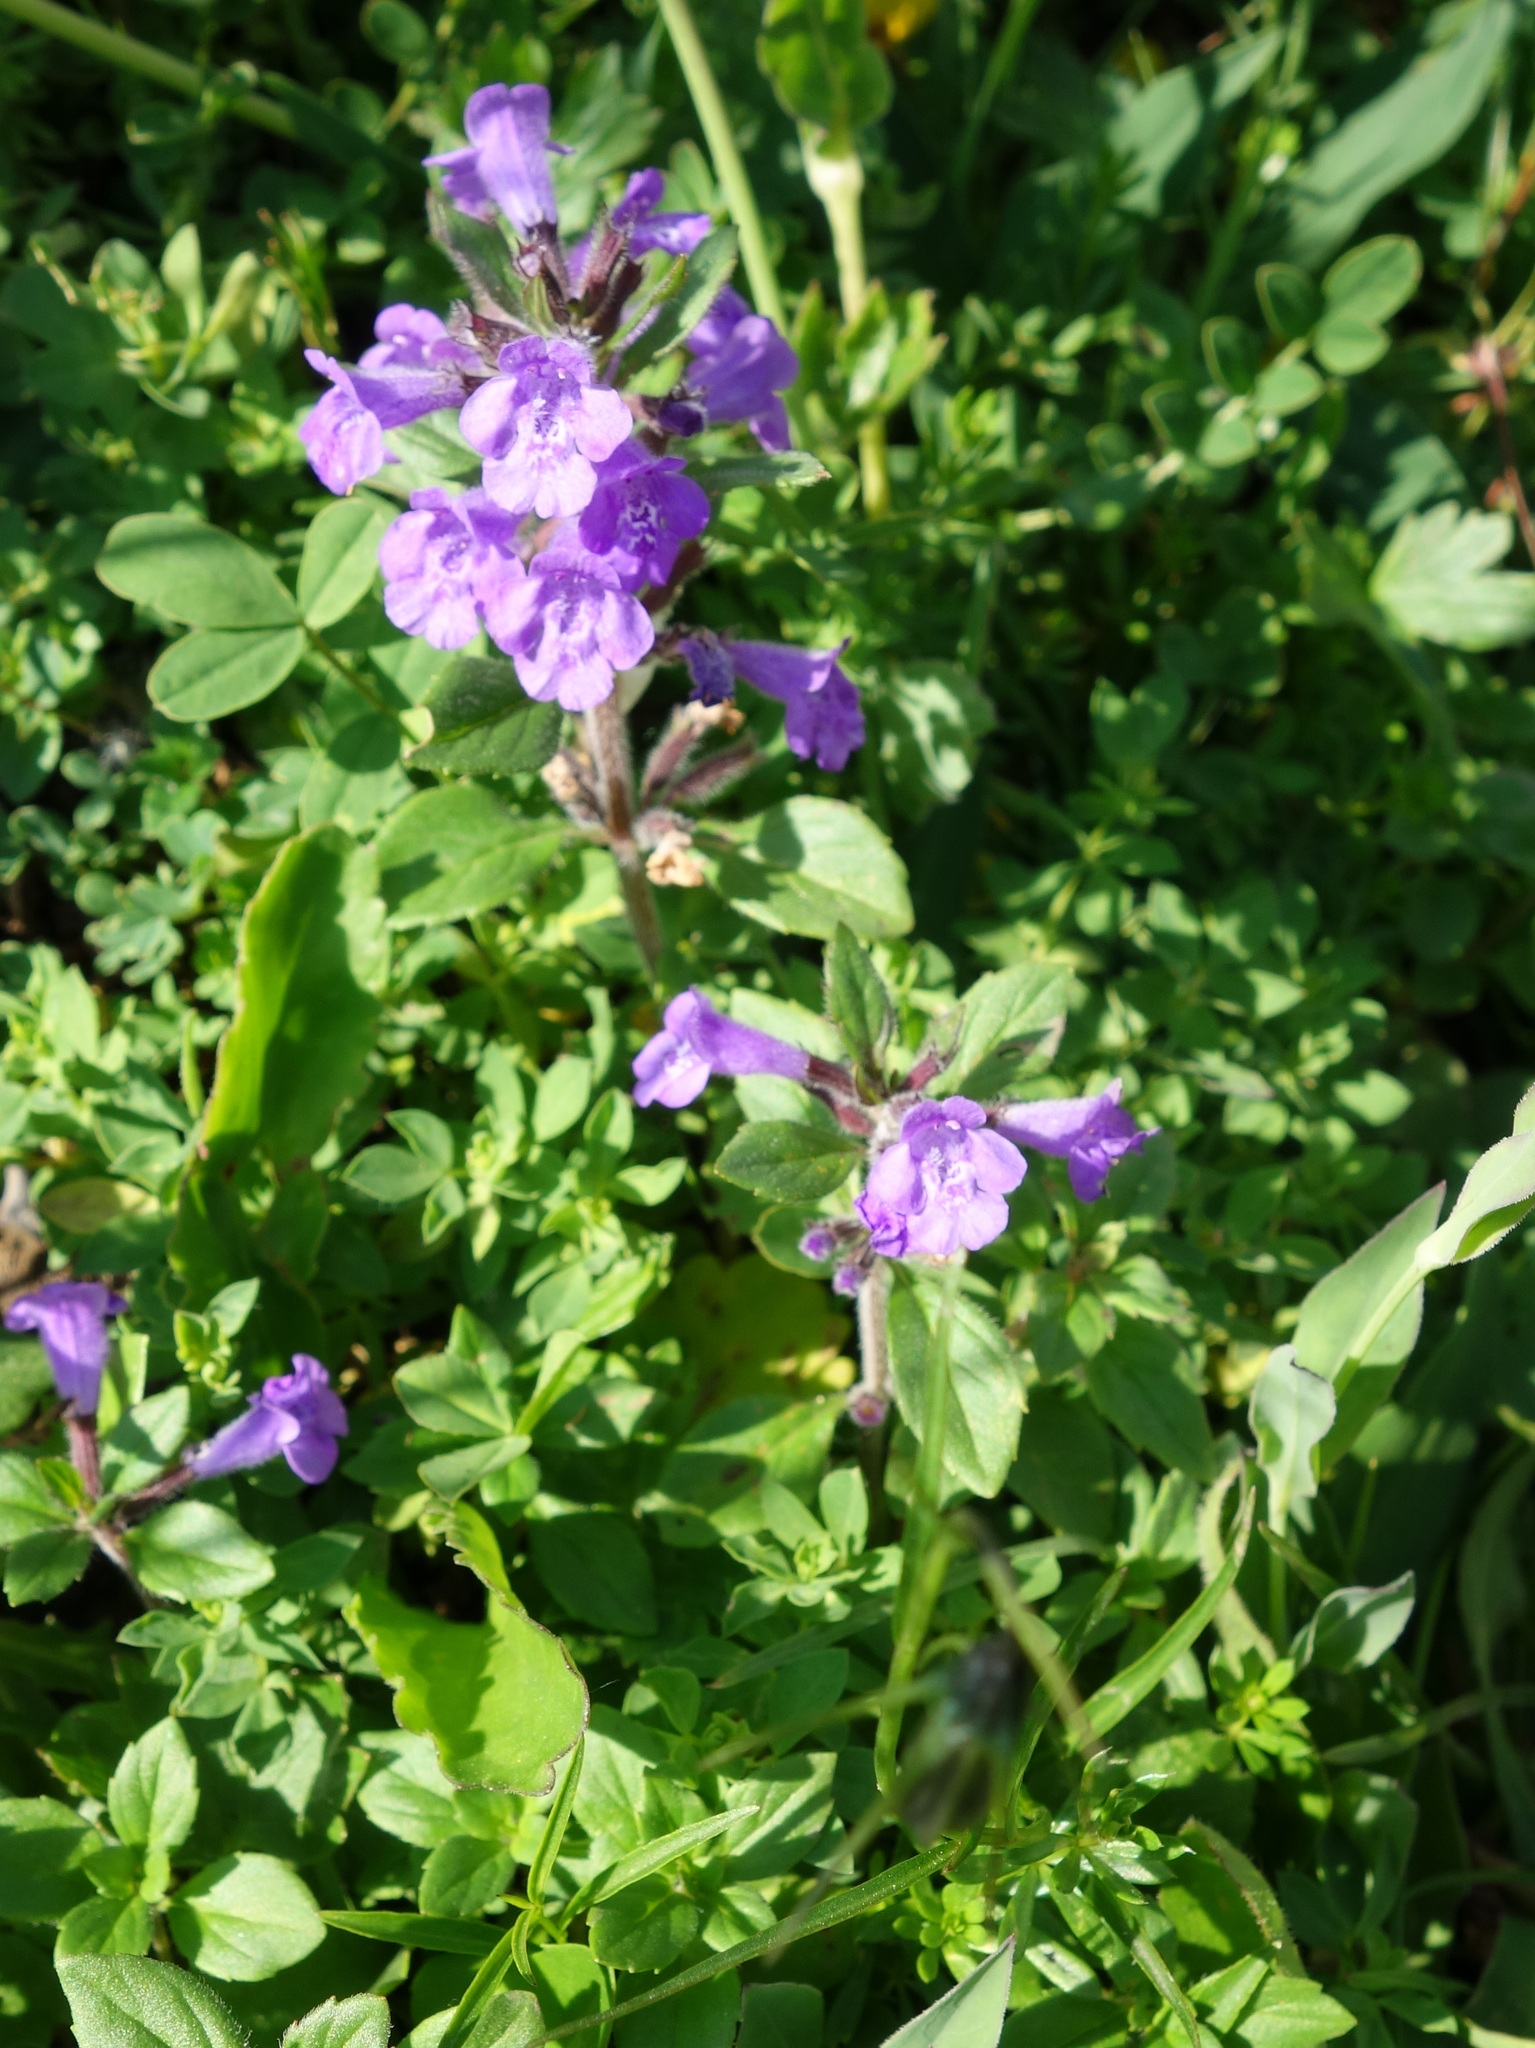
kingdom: Plantae
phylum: Tracheophyta
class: Magnoliopsida
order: Lamiales
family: Lamiaceae
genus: Clinopodium
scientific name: Clinopodium alpinum
